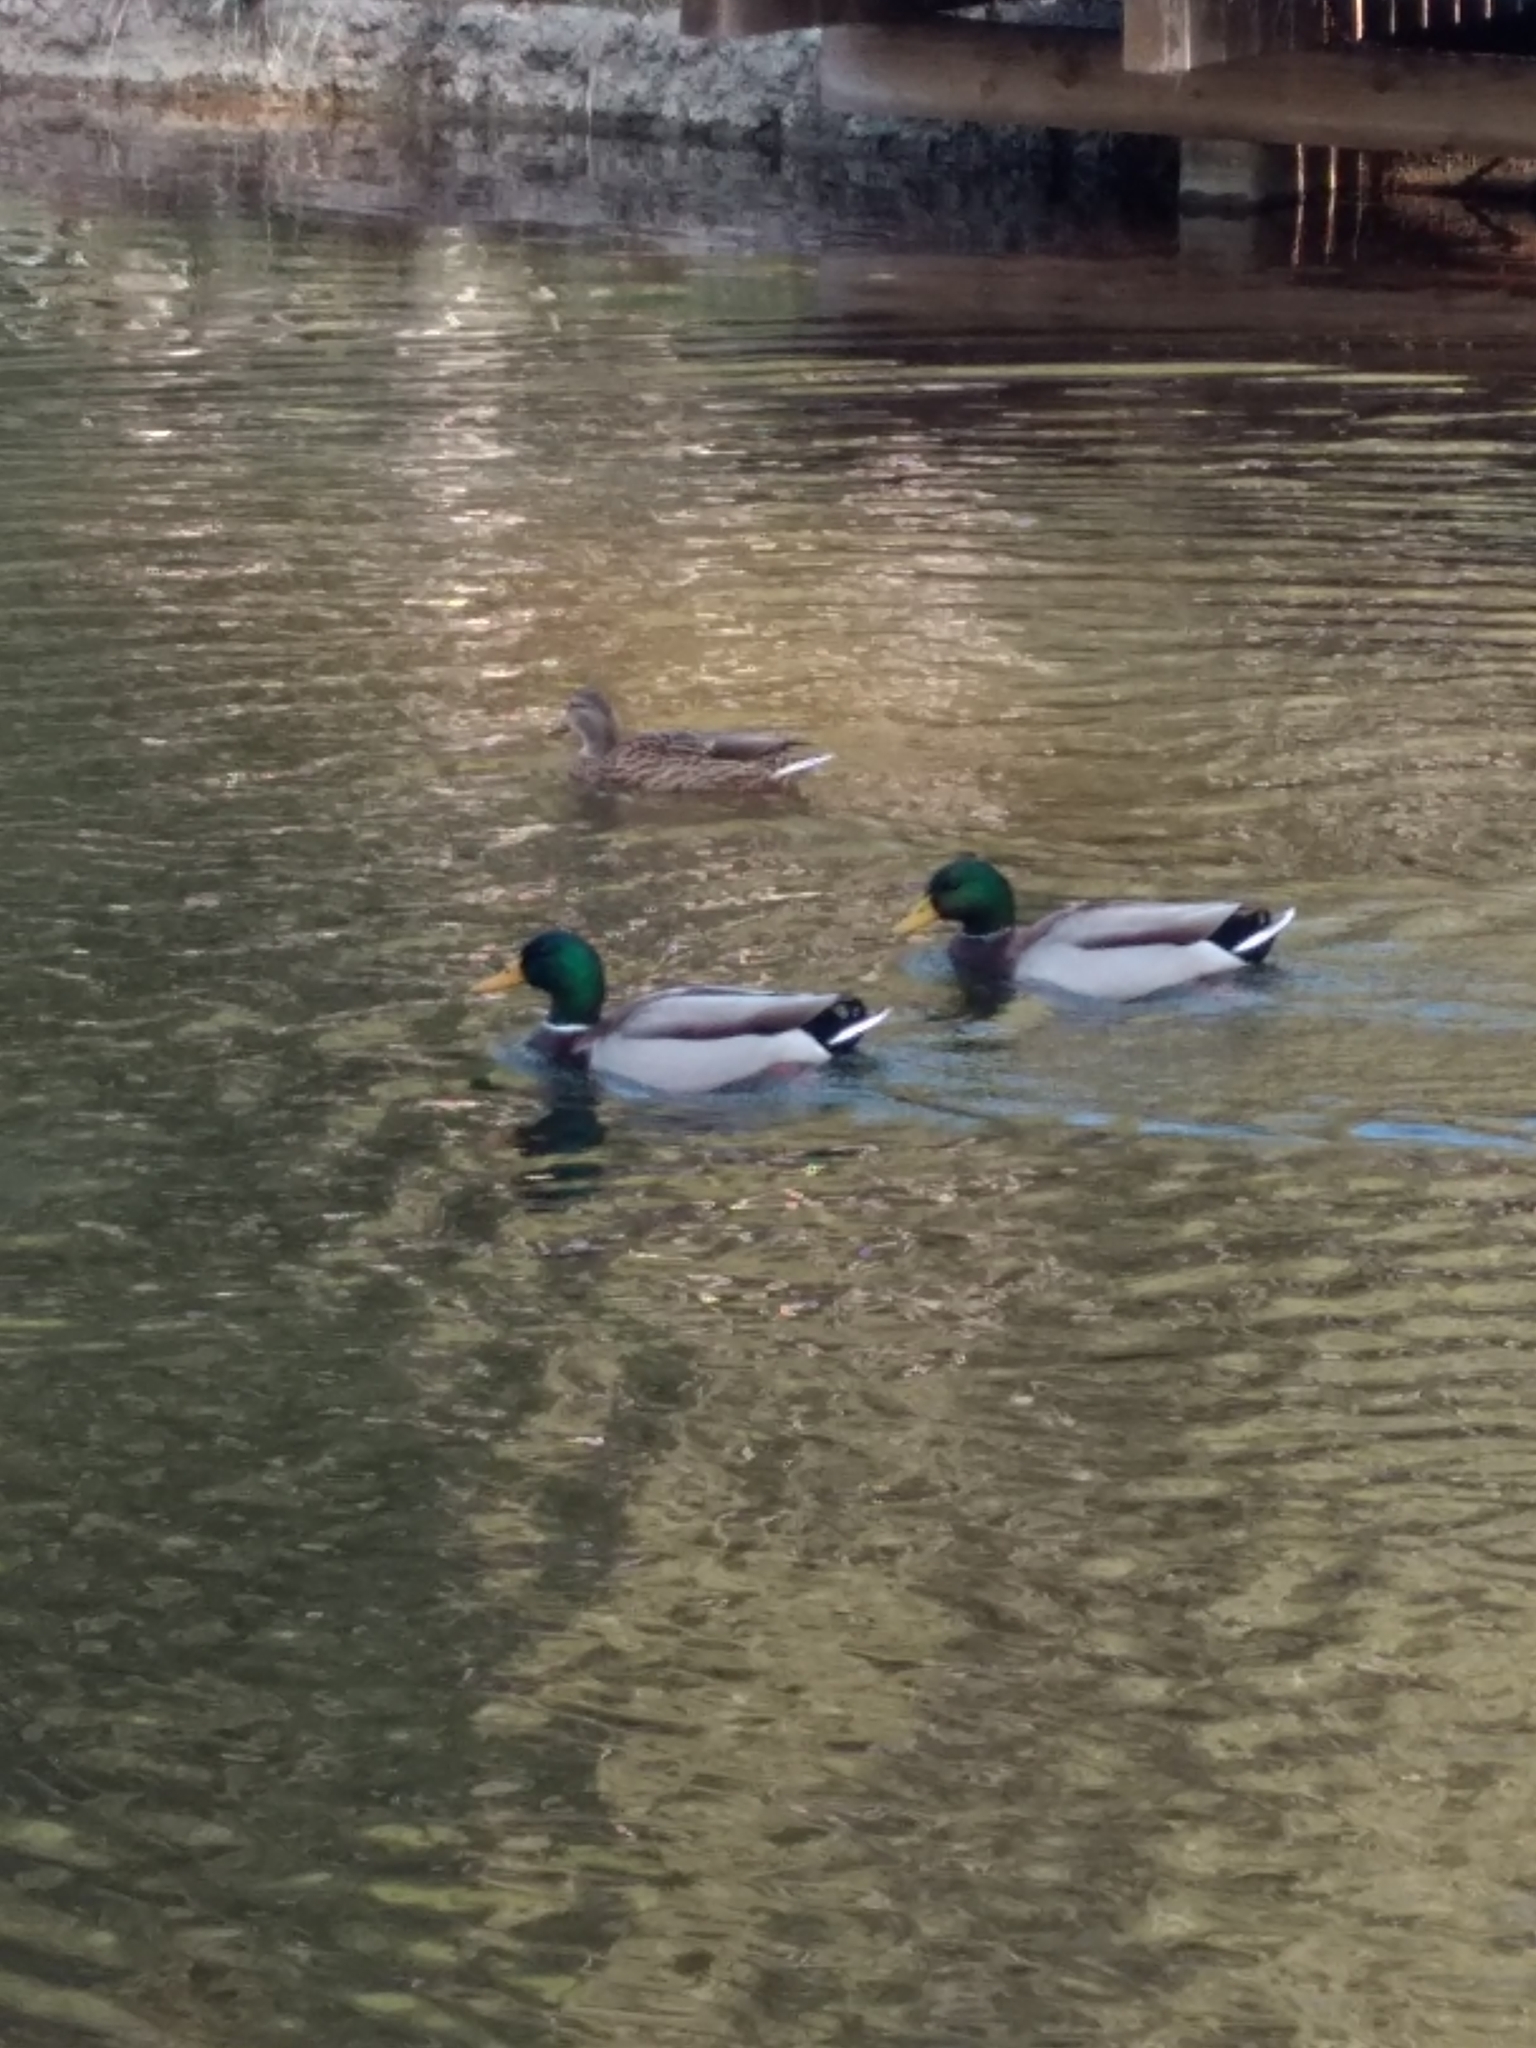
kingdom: Animalia
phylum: Chordata
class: Aves
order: Anseriformes
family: Anatidae
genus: Anas
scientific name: Anas platyrhynchos
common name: Mallard
